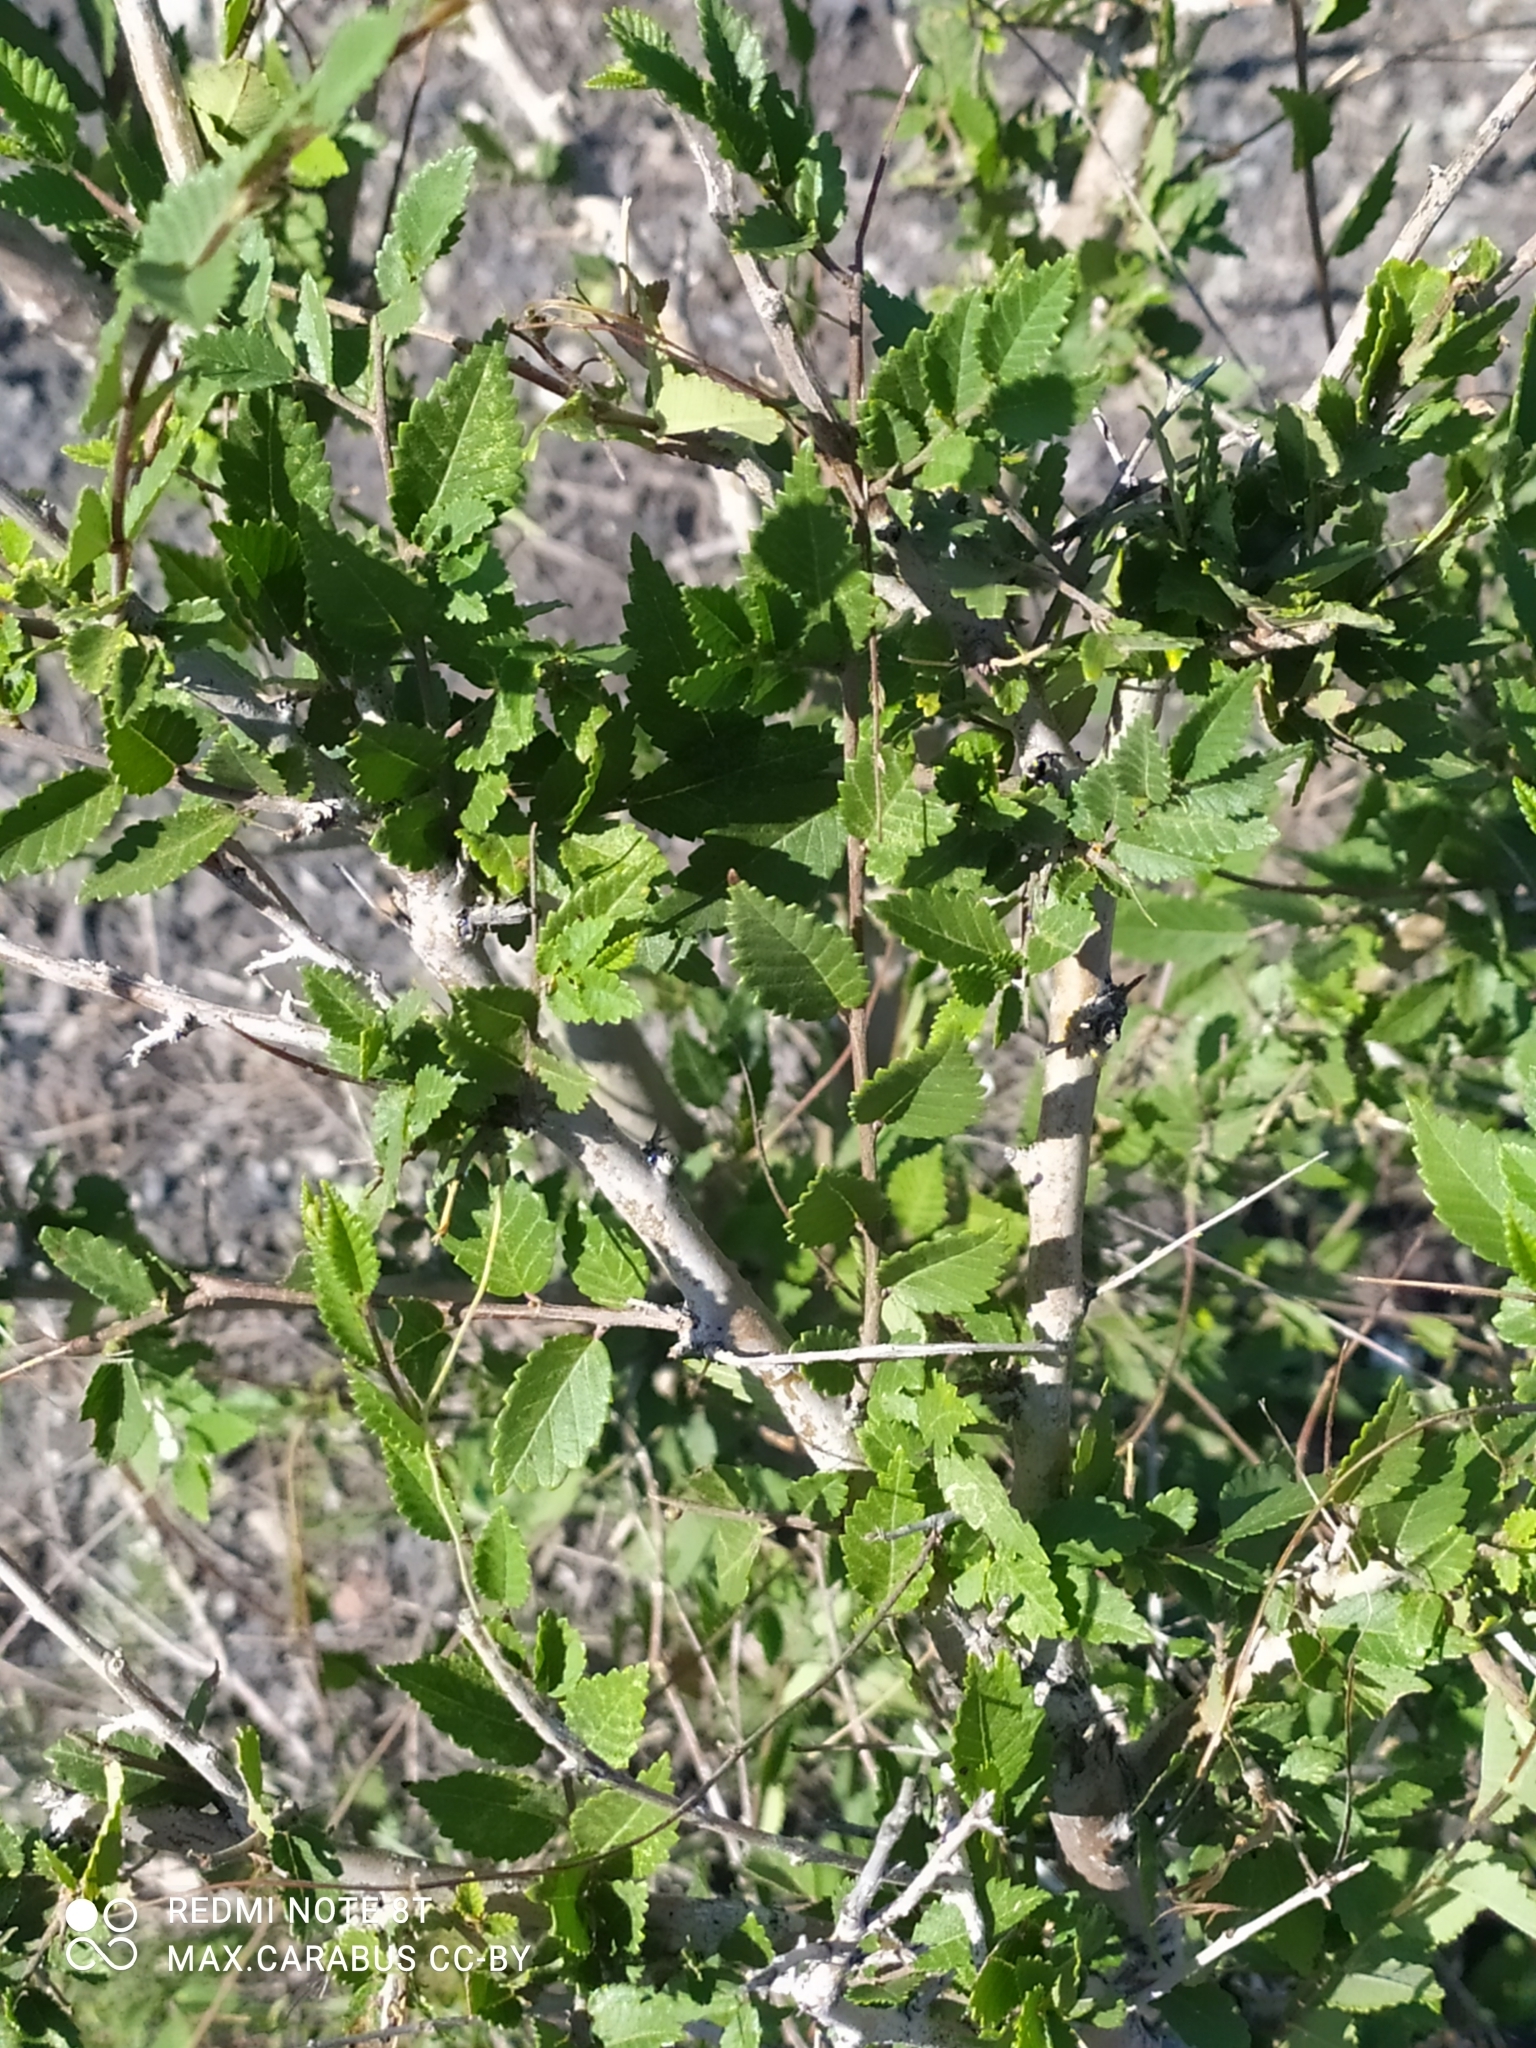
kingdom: Plantae
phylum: Tracheophyta
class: Magnoliopsida
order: Rosales
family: Ulmaceae
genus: Ulmus
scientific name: Ulmus pumila
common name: Siberian elm
